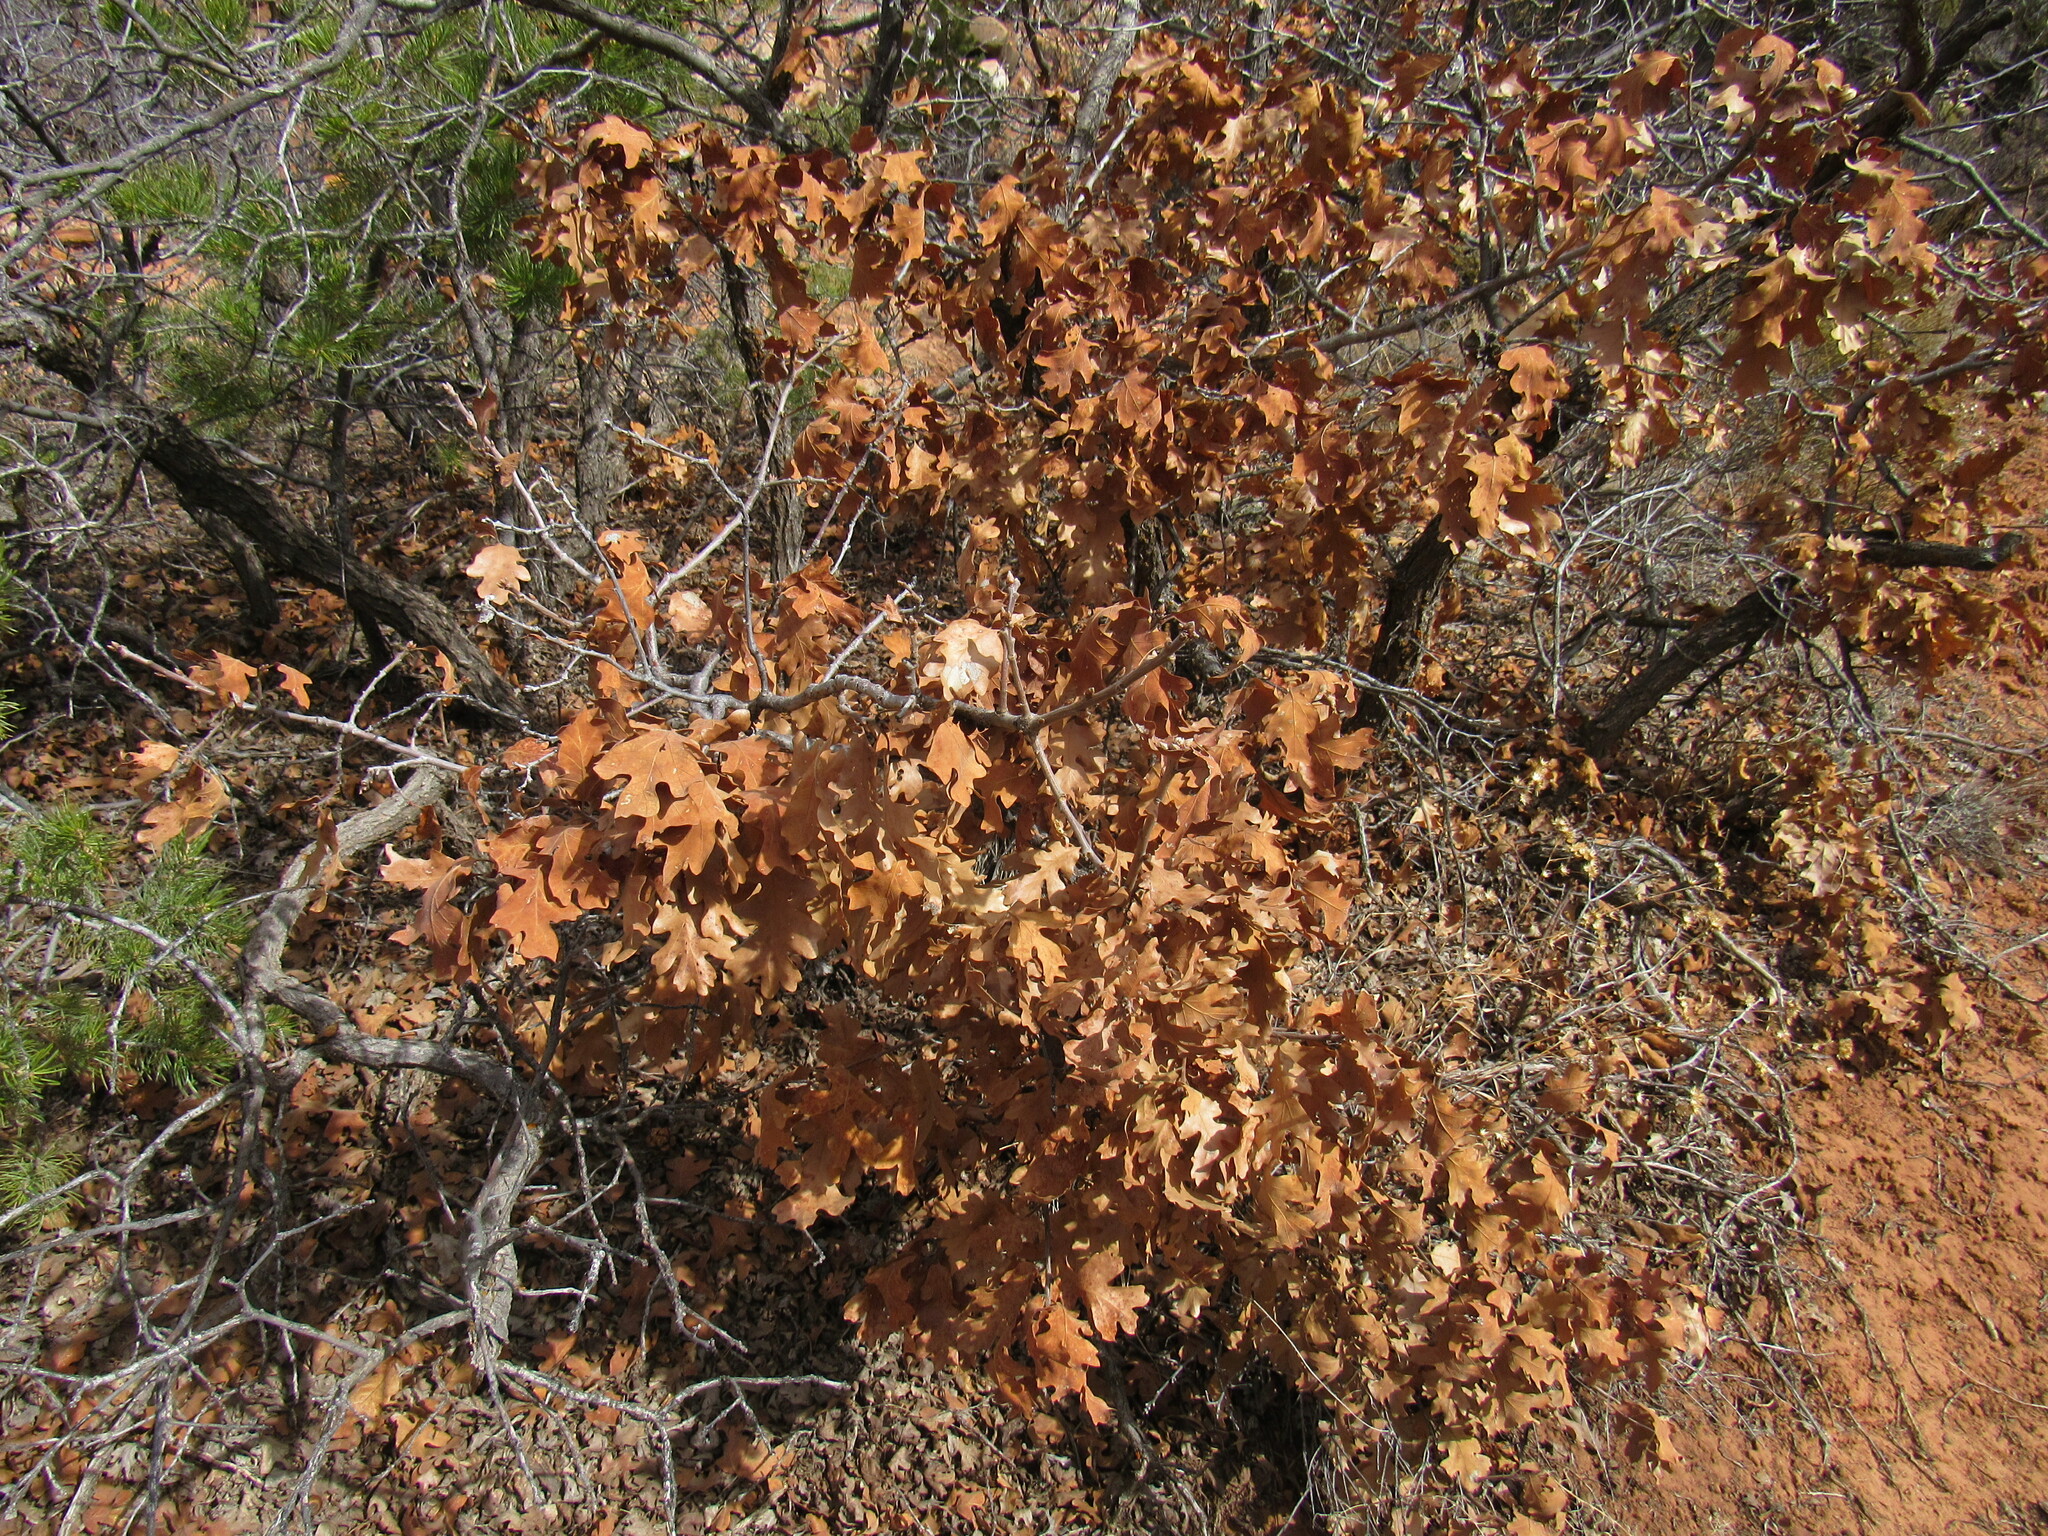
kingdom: Plantae
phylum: Tracheophyta
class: Magnoliopsida
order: Fagales
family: Fagaceae
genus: Quercus
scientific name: Quercus gambelii
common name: Gambel oak
